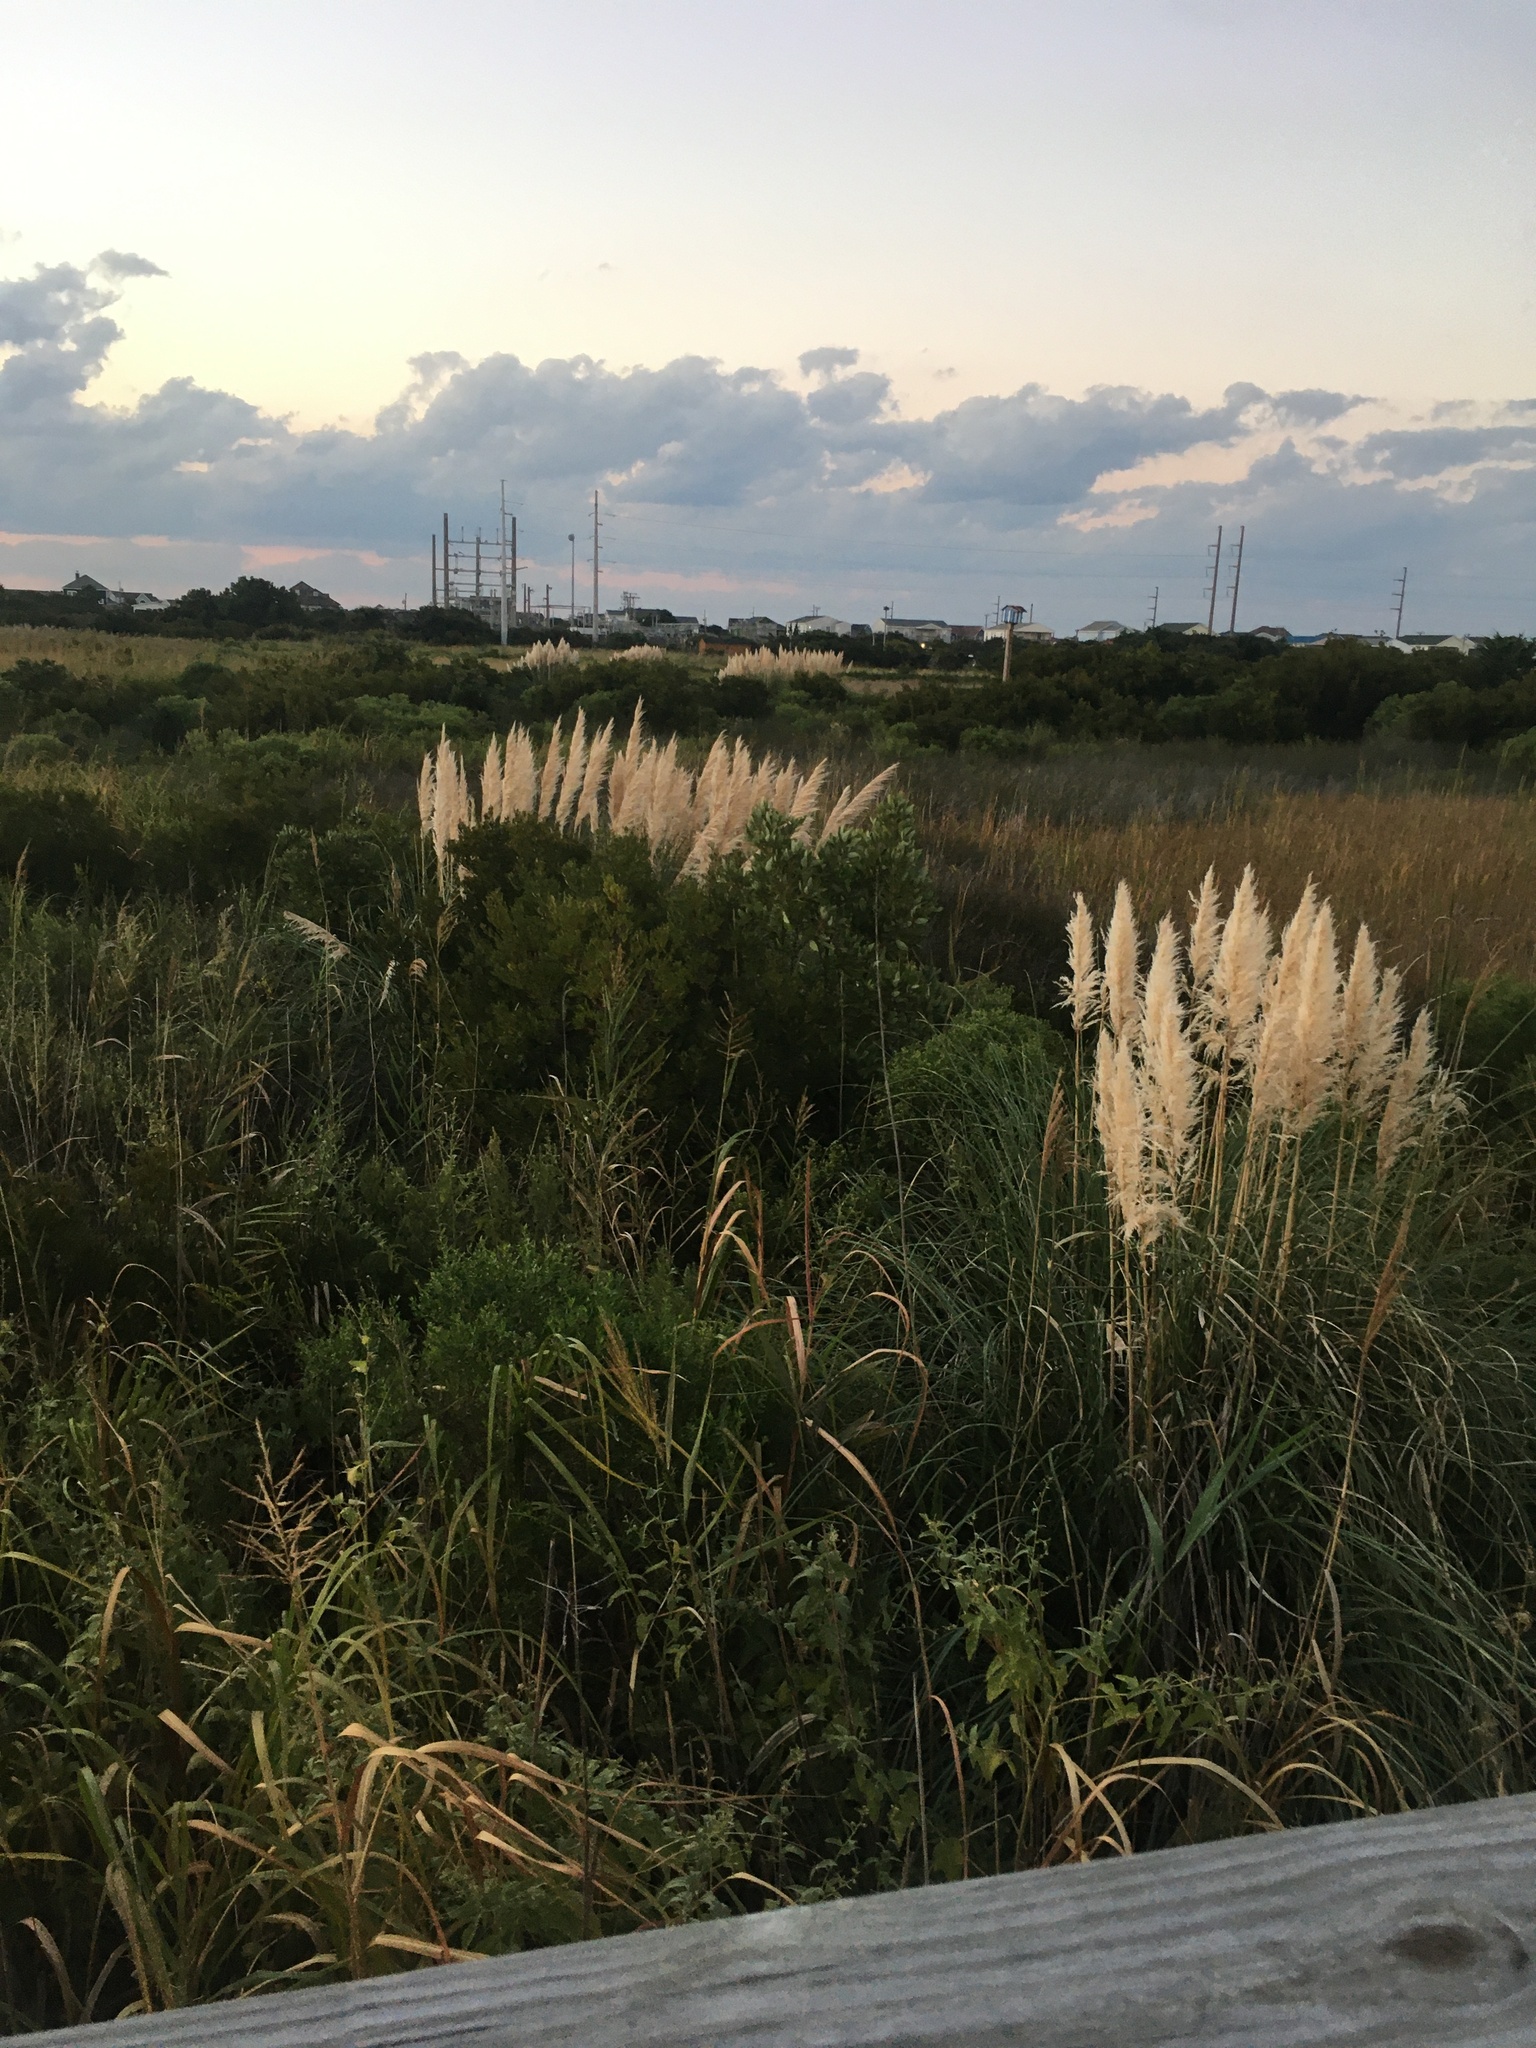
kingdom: Plantae
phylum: Tracheophyta
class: Liliopsida
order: Poales
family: Poaceae
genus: Cortaderia
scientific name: Cortaderia selloana
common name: Uruguayan pampas grass
